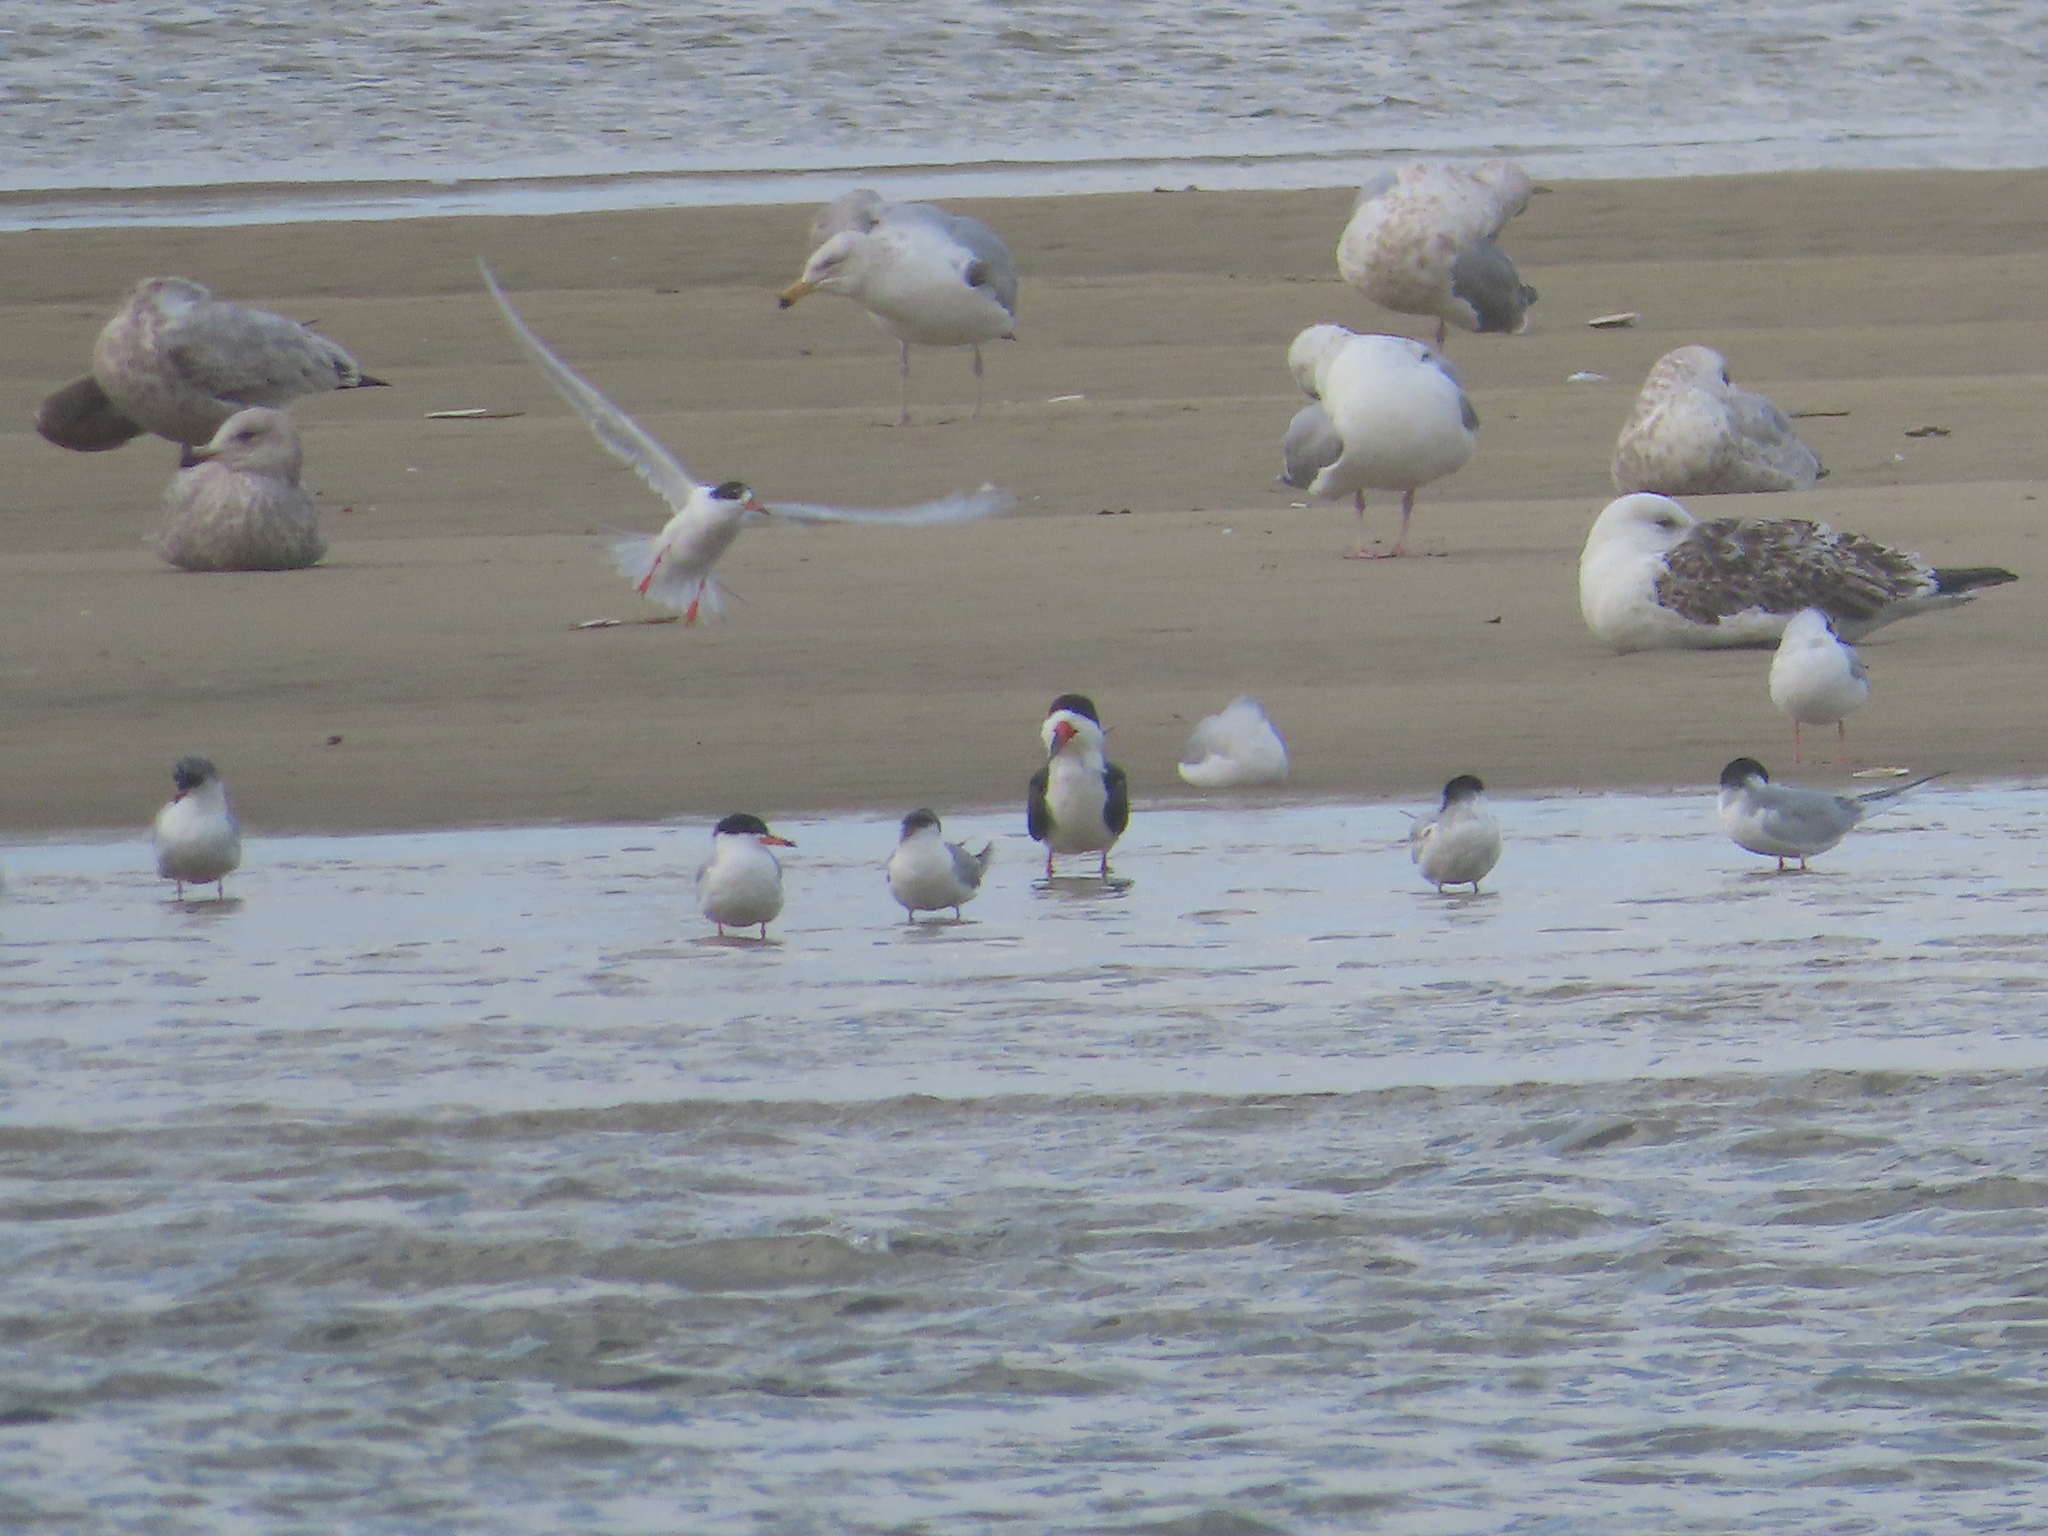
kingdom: Animalia
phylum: Chordata
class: Aves
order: Charadriiformes
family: Laridae
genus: Rynchops
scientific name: Rynchops niger
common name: Black skimmer
